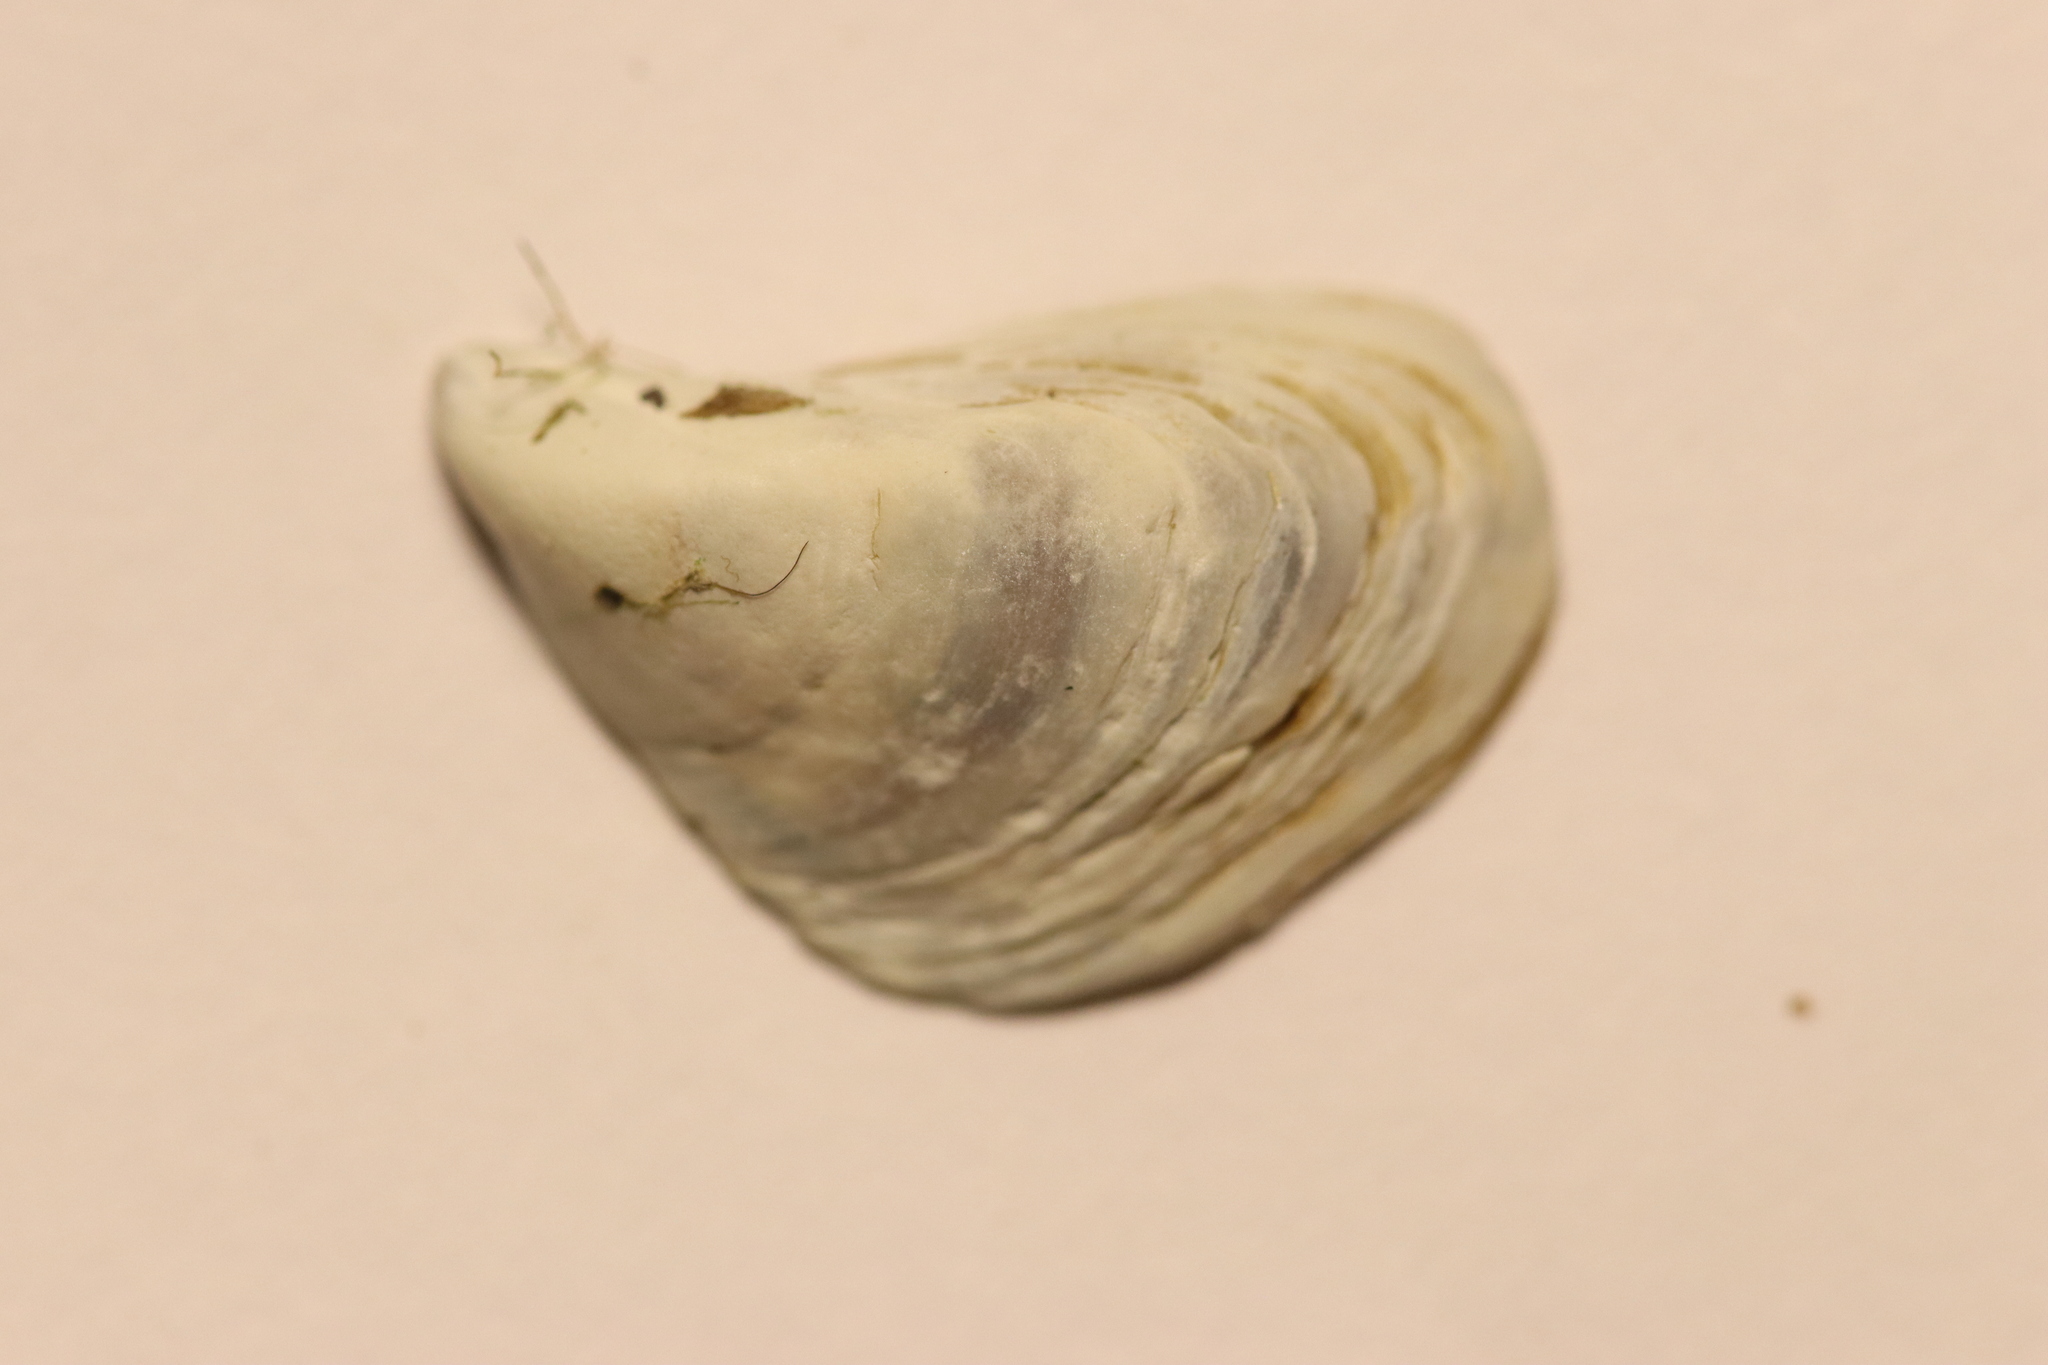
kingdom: Animalia
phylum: Mollusca
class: Bivalvia
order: Myida
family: Dreissenidae
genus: Dreissena
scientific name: Dreissena polymorpha
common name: Zebra mussel
